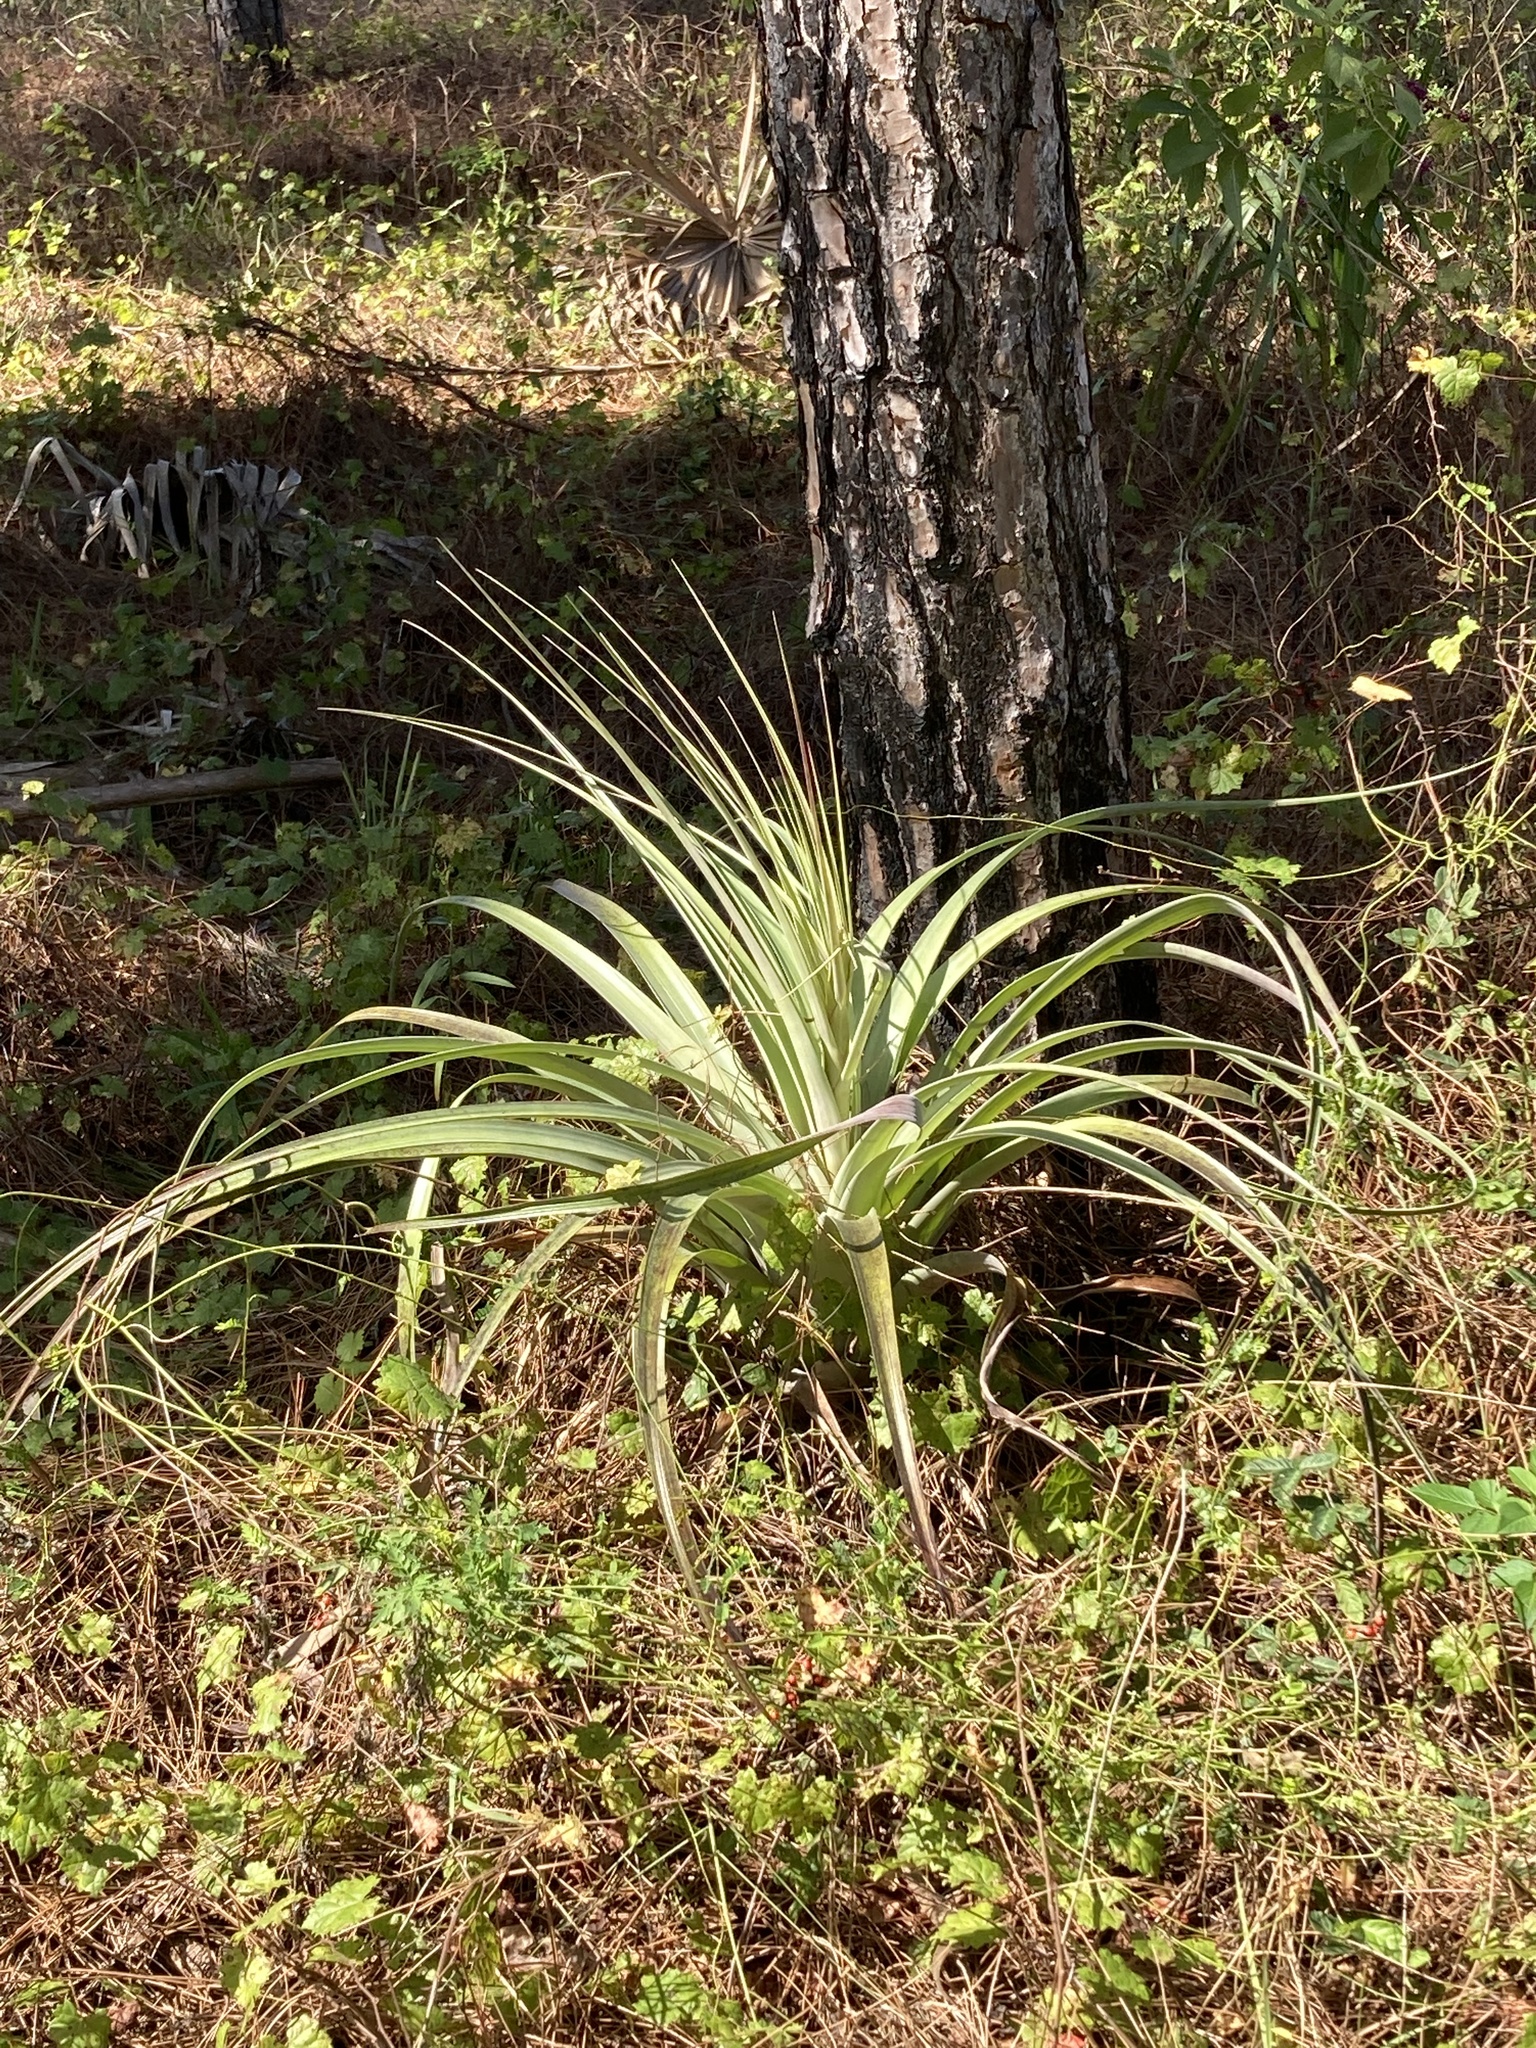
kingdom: Plantae
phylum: Tracheophyta
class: Liliopsida
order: Poales
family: Bromeliaceae
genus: Tillandsia
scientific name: Tillandsia utriculata
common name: Wild pine
